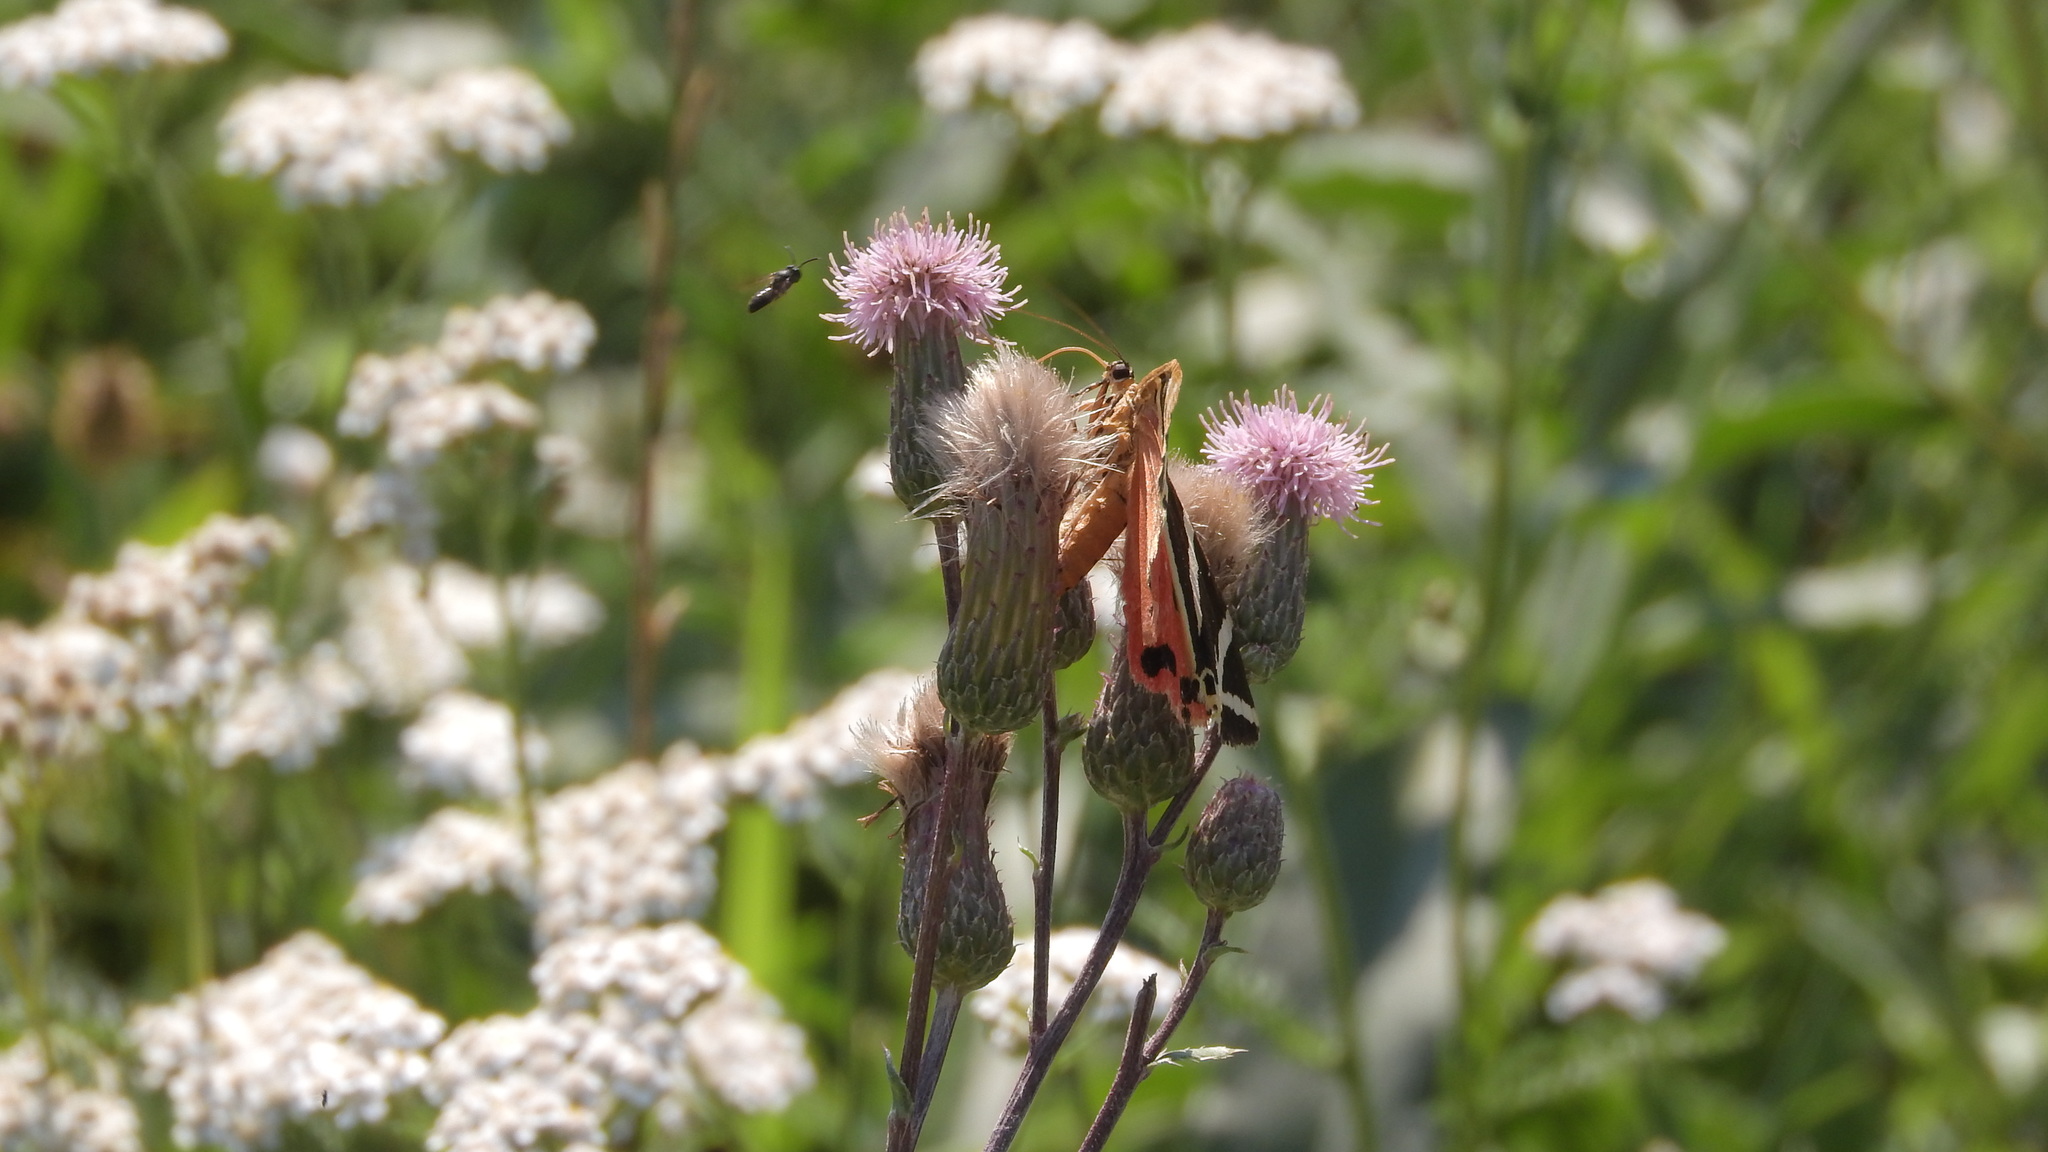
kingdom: Animalia
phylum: Arthropoda
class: Insecta
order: Lepidoptera
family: Erebidae
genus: Euplagia
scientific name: Euplagia quadripunctaria
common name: Jersey tiger
